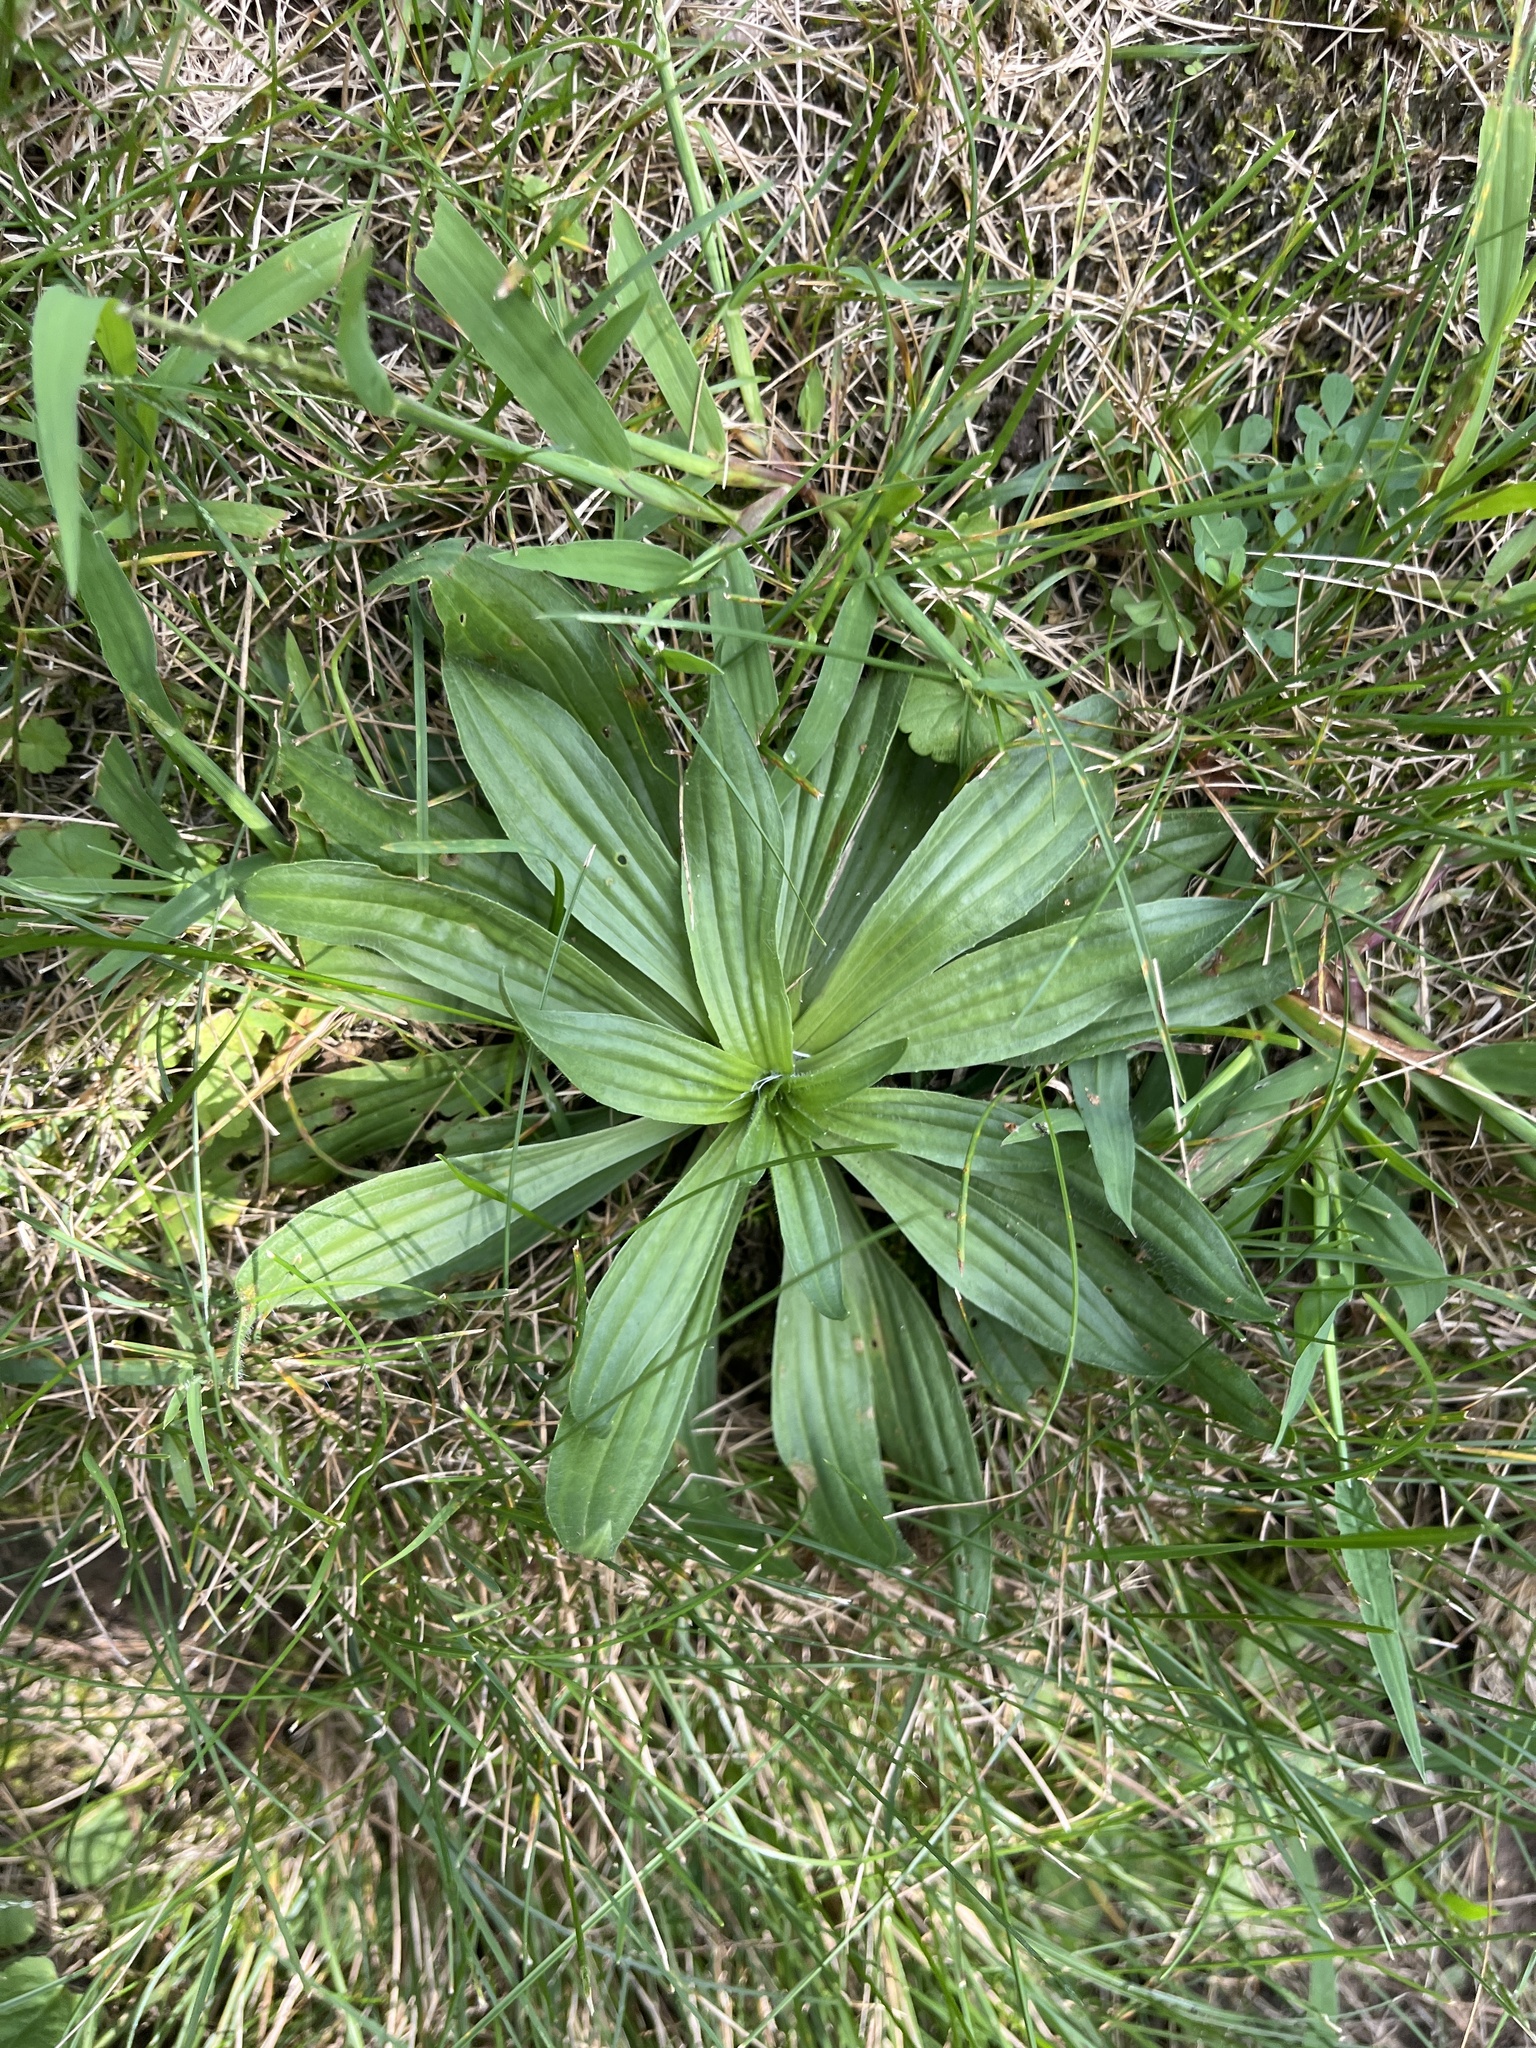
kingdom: Plantae
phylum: Tracheophyta
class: Magnoliopsida
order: Lamiales
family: Plantaginaceae
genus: Plantago
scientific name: Plantago lanceolata
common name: Ribwort plantain
